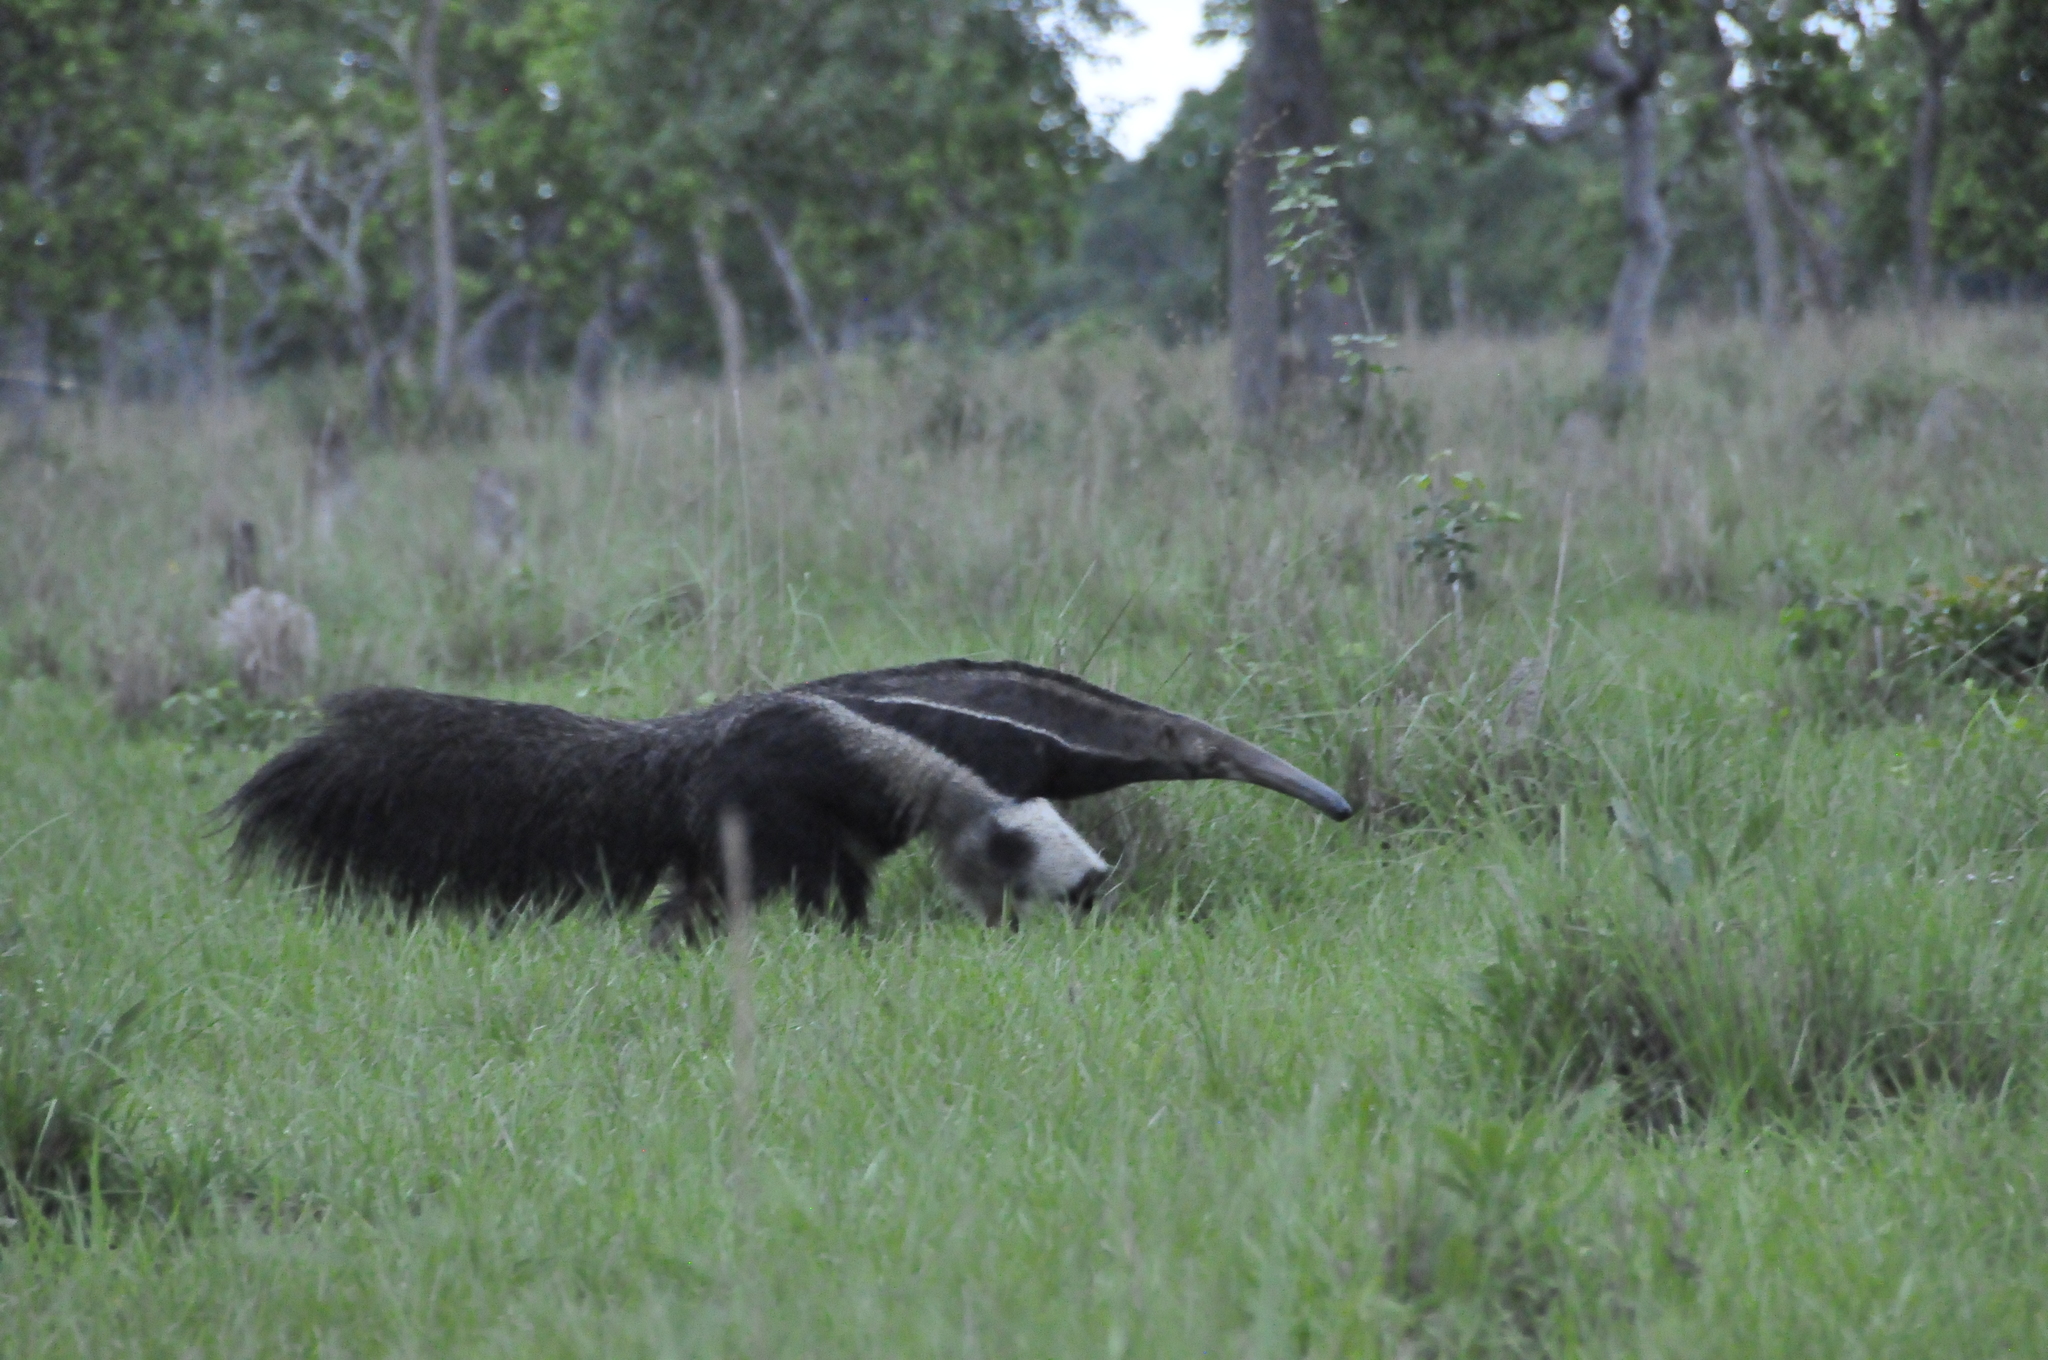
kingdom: Animalia
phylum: Chordata
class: Mammalia
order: Pilosa
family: Myrmecophagidae
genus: Myrmecophaga
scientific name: Myrmecophaga tridactyla
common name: Giant anteater
